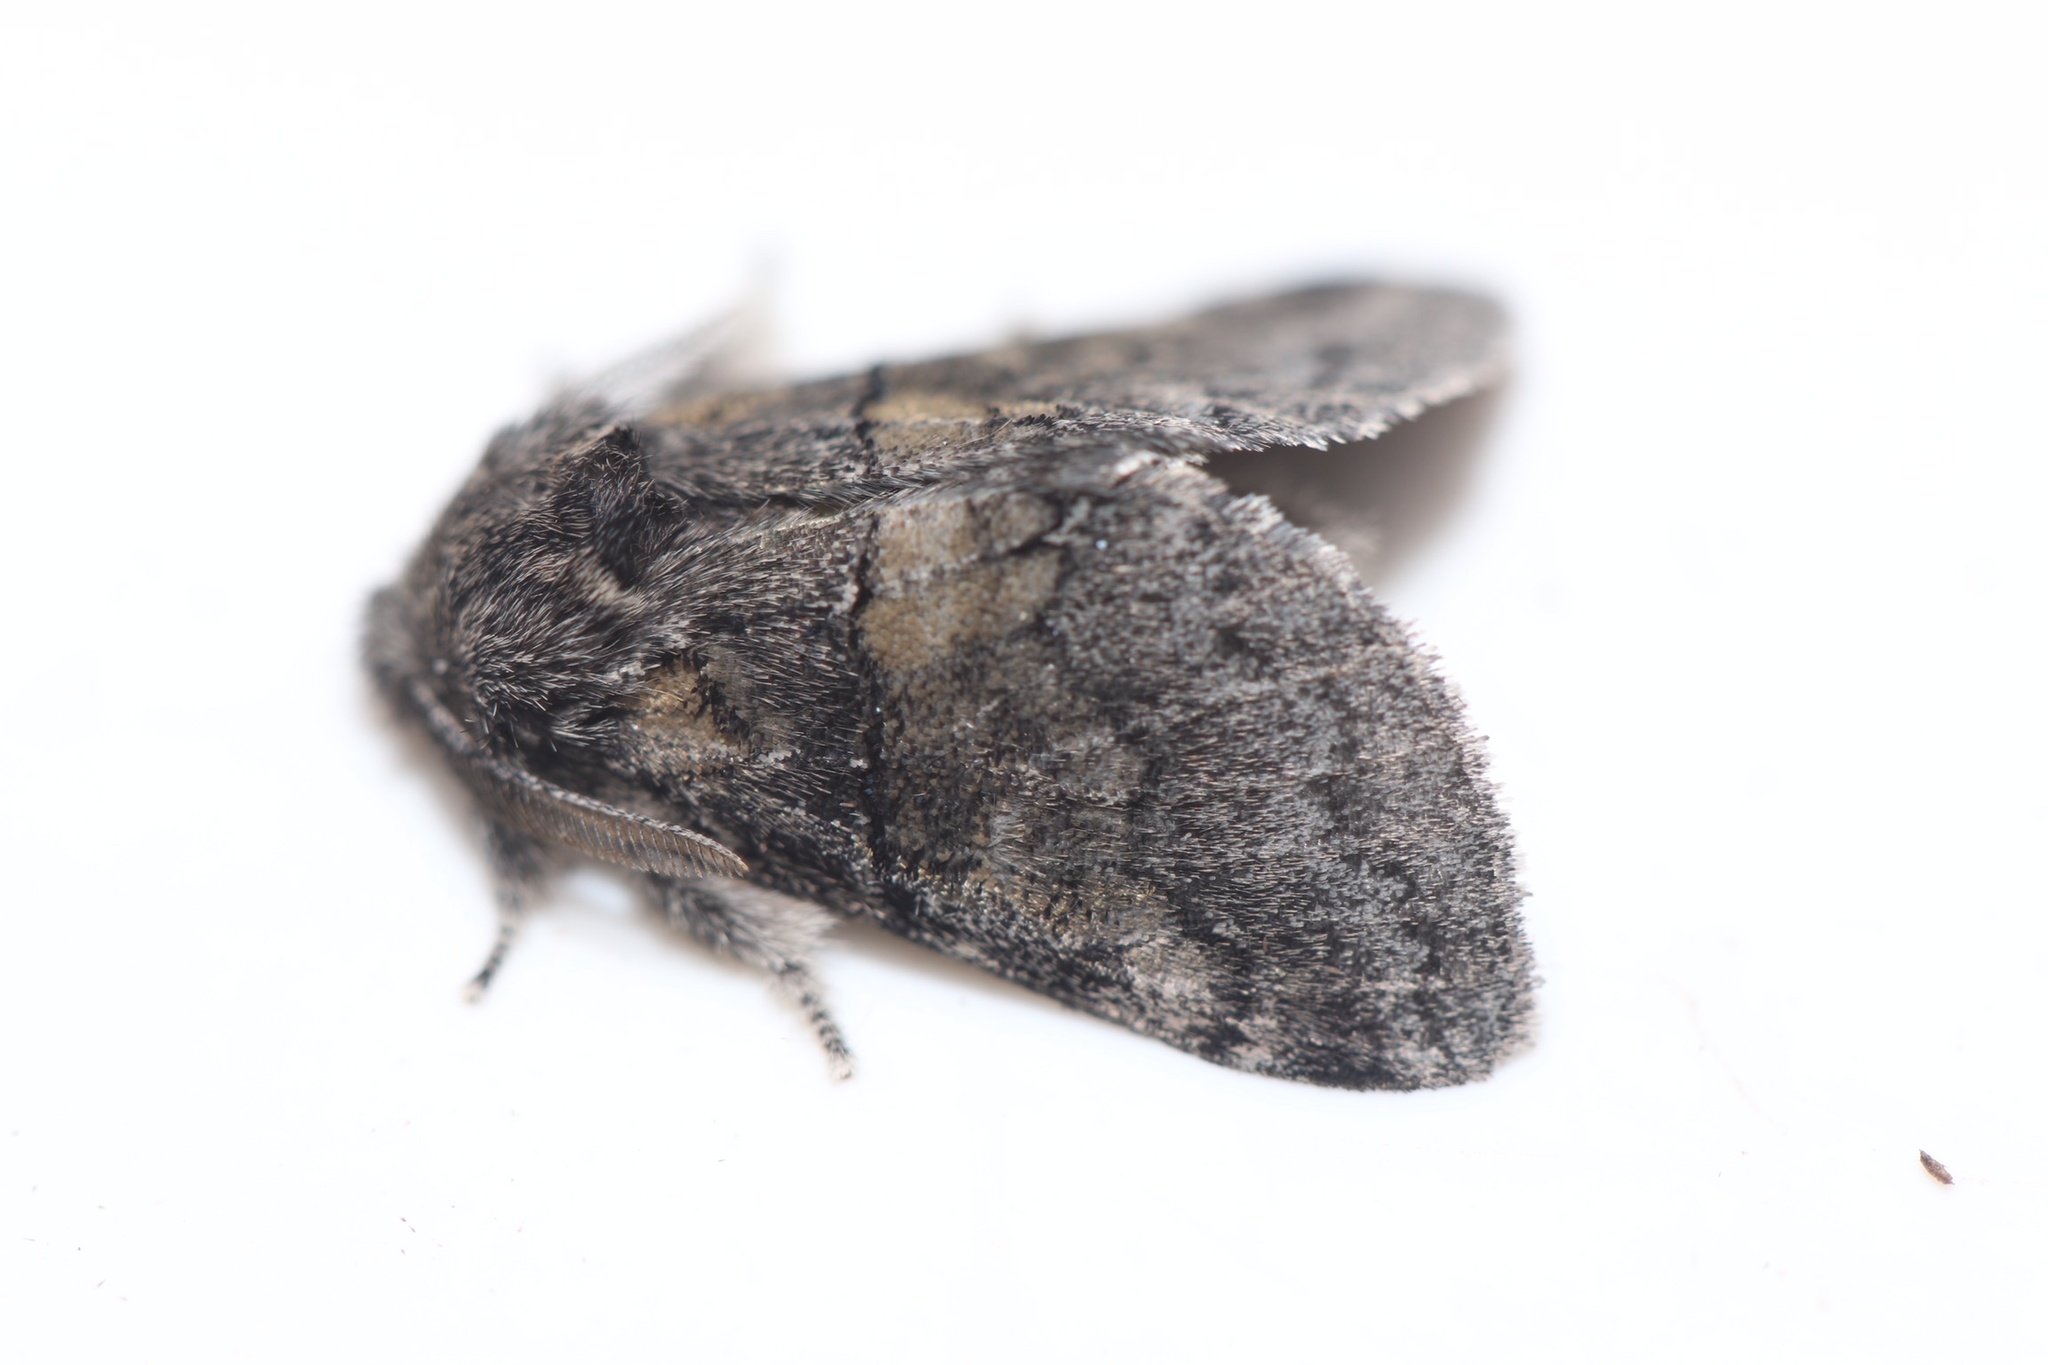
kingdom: Animalia
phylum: Arthropoda
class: Insecta
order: Lepidoptera
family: Notodontidae
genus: Gluphisia
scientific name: Gluphisia septentrionis
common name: Common gluphisia
